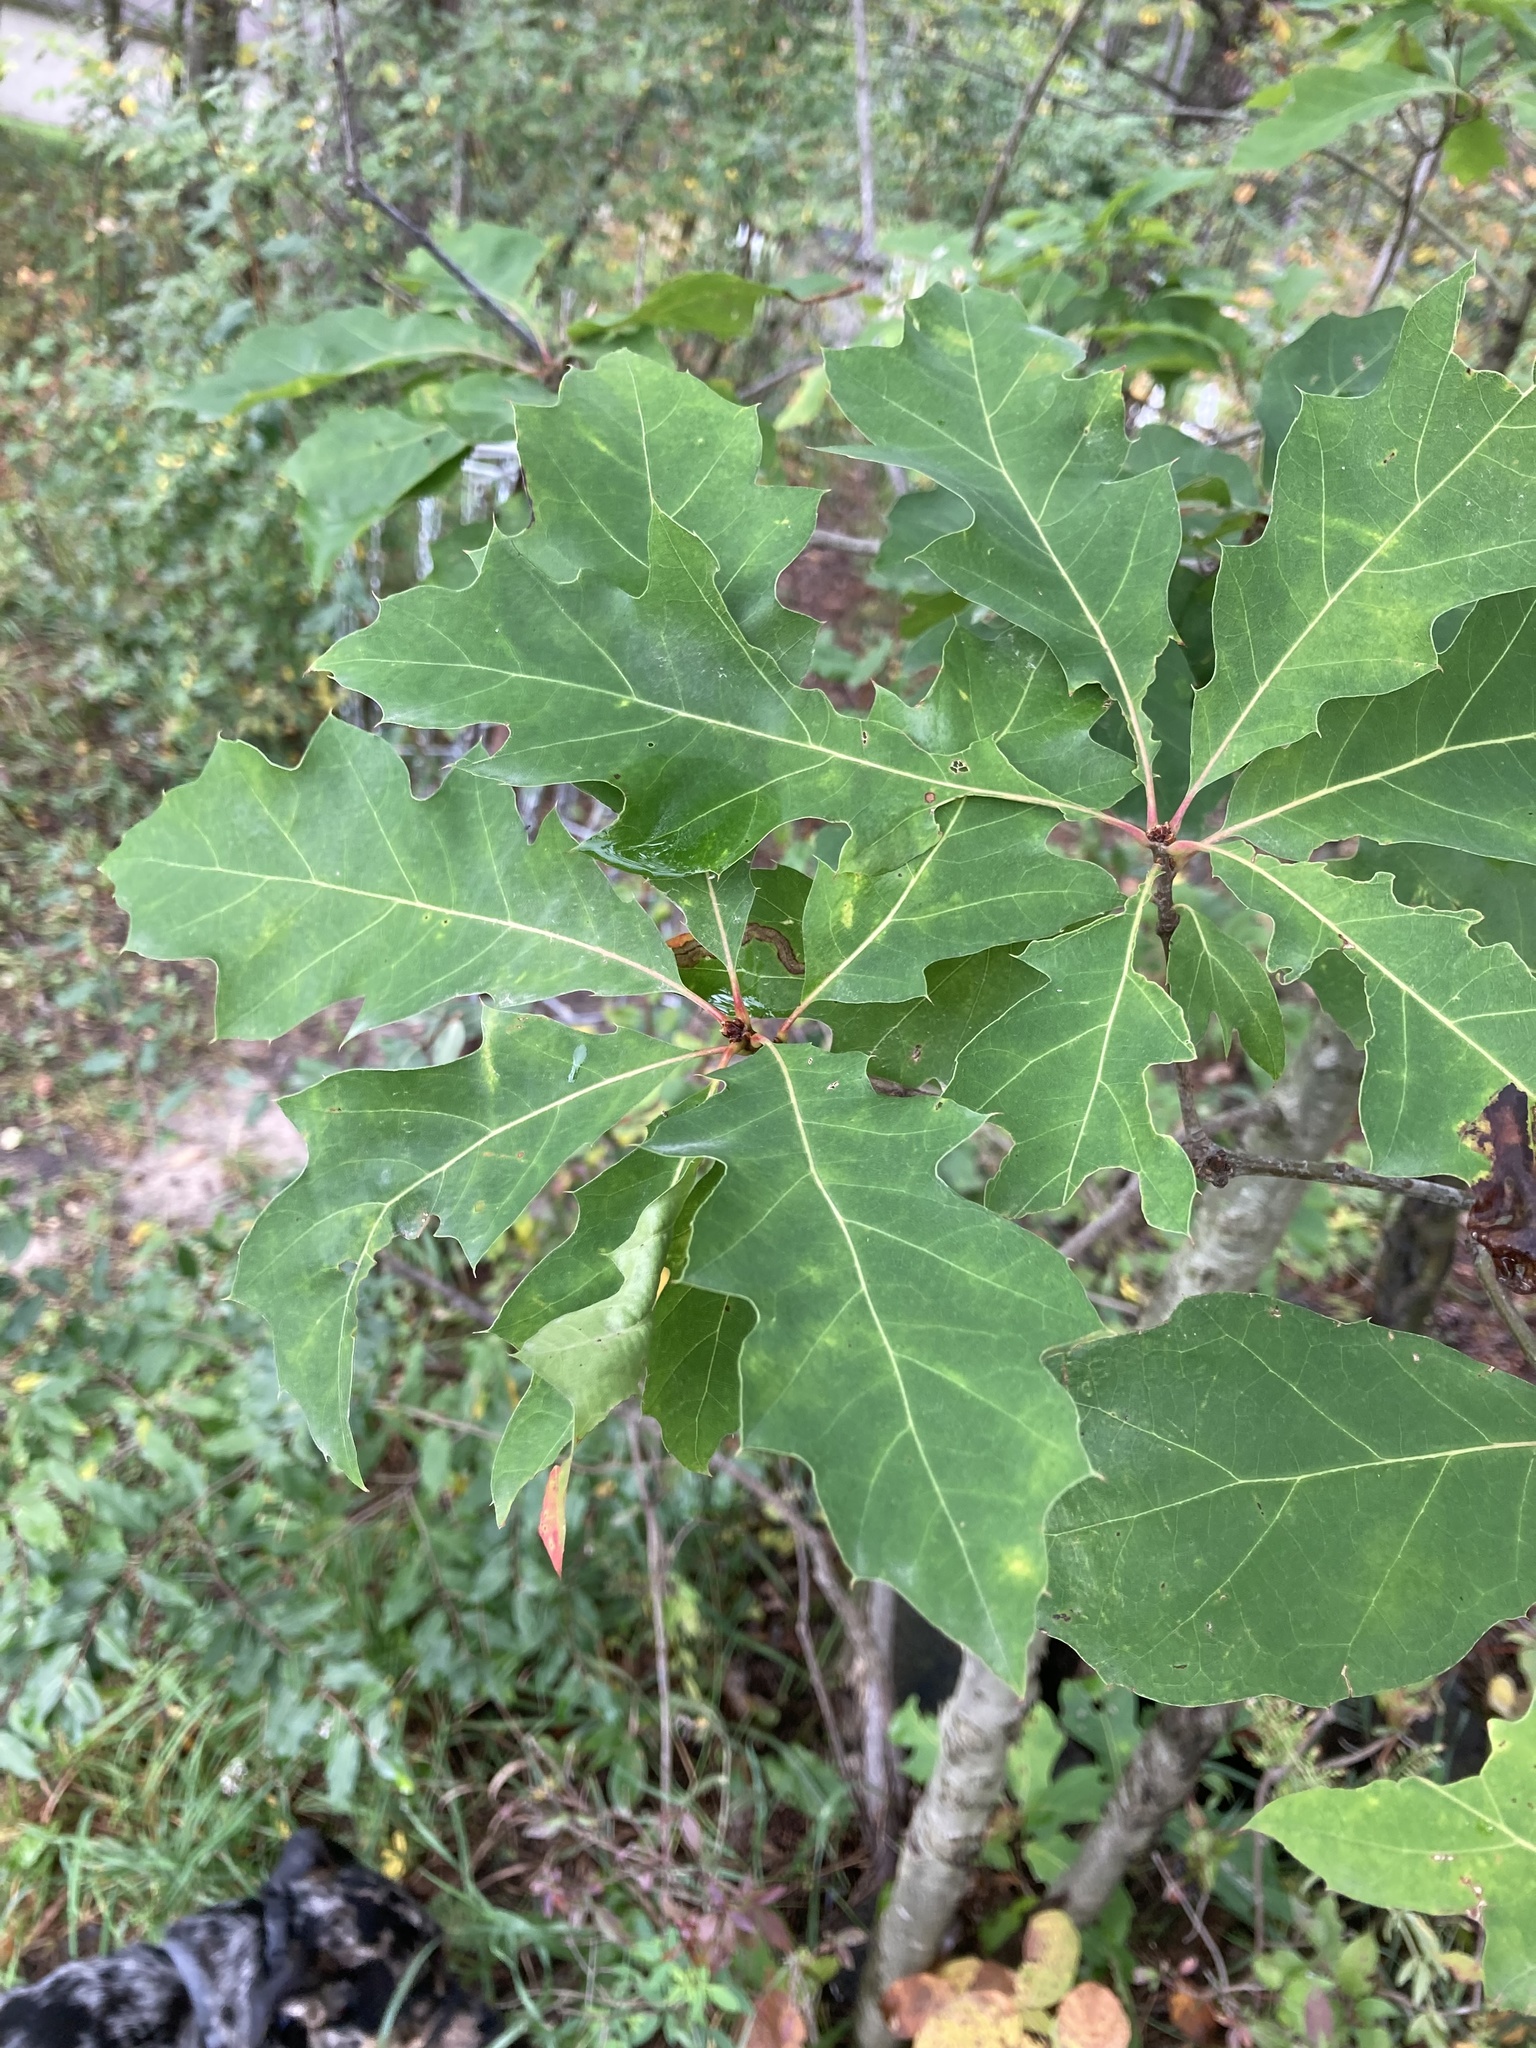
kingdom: Plantae
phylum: Tracheophyta
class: Magnoliopsida
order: Fagales
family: Fagaceae
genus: Quercus
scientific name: Quercus rubra
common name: Red oak
